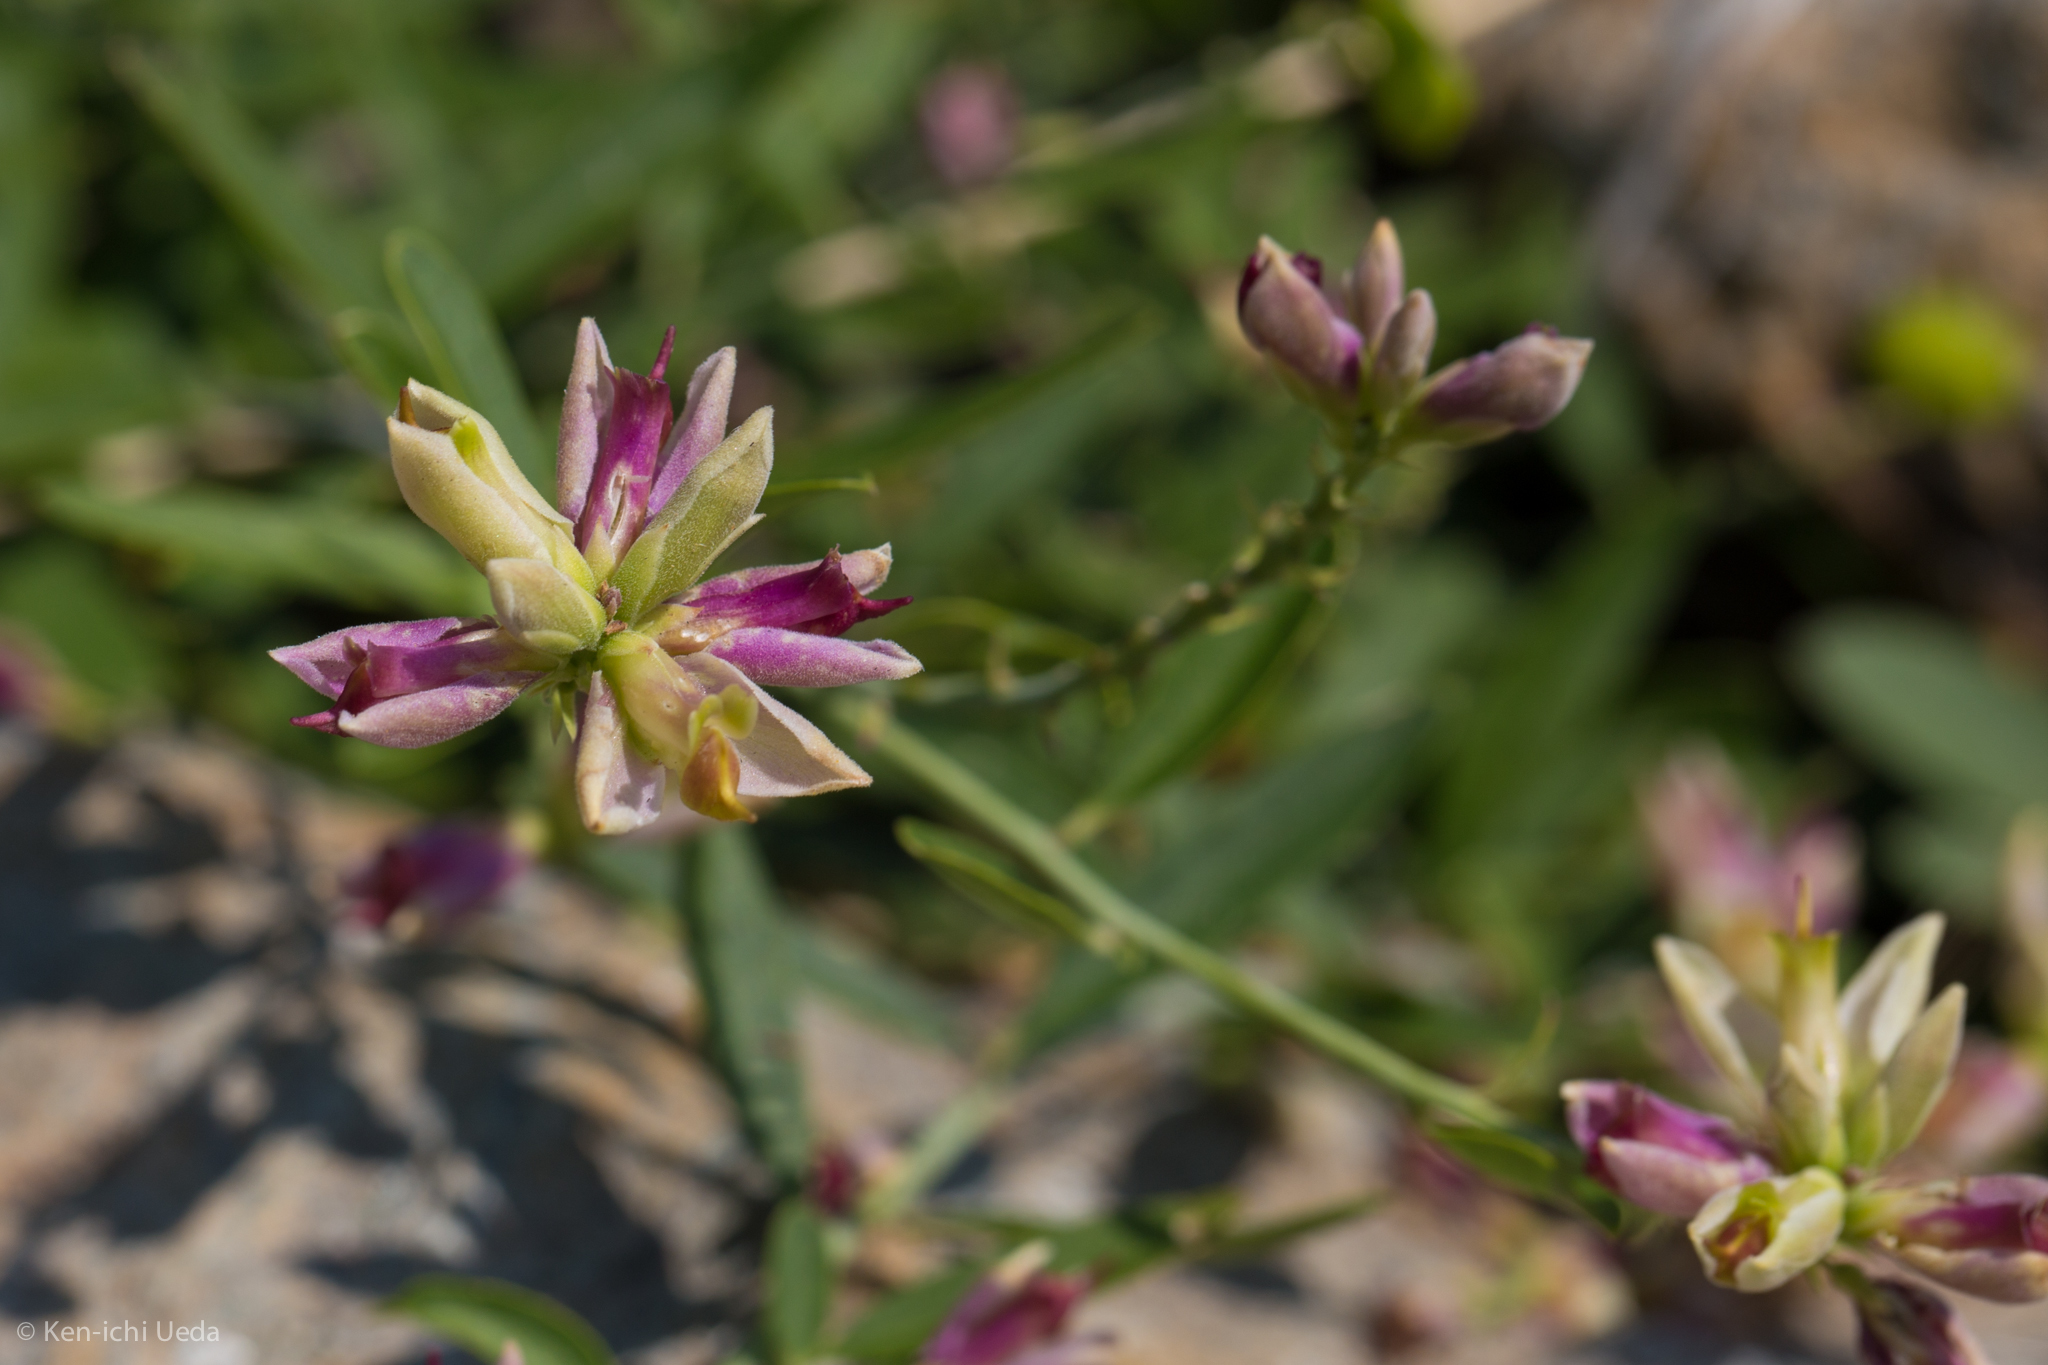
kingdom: Plantae
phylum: Tracheophyta
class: Magnoliopsida
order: Fabales
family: Polygalaceae
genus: Rhinotropis
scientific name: Rhinotropis cornuta
